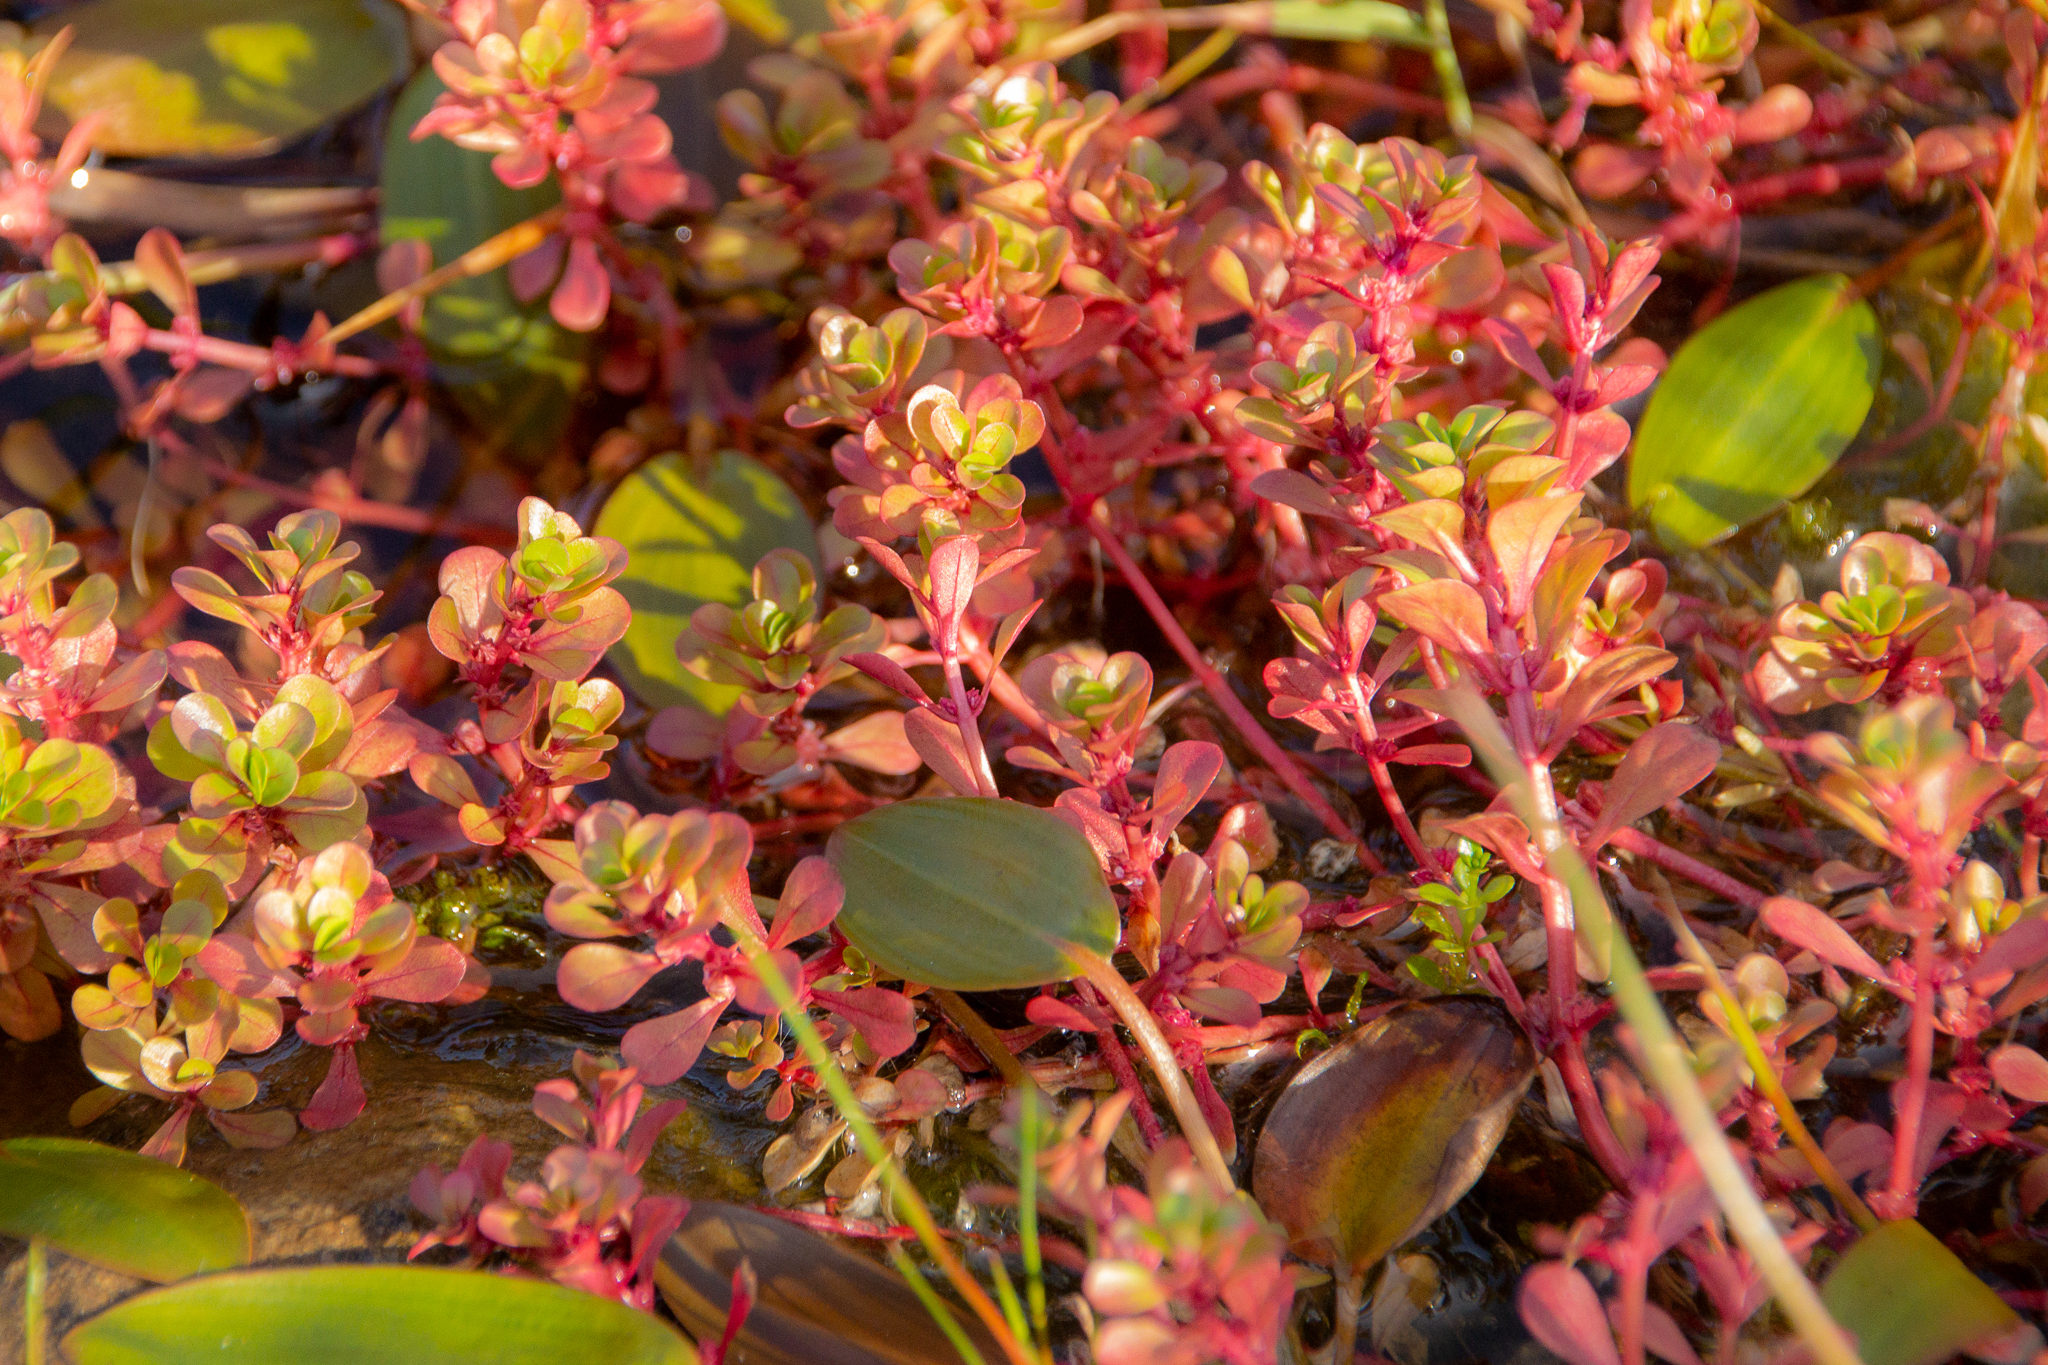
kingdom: Plantae
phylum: Tracheophyta
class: Magnoliopsida
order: Myrtales
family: Lythraceae
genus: Lythrum
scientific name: Lythrum portula
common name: Water purslane
